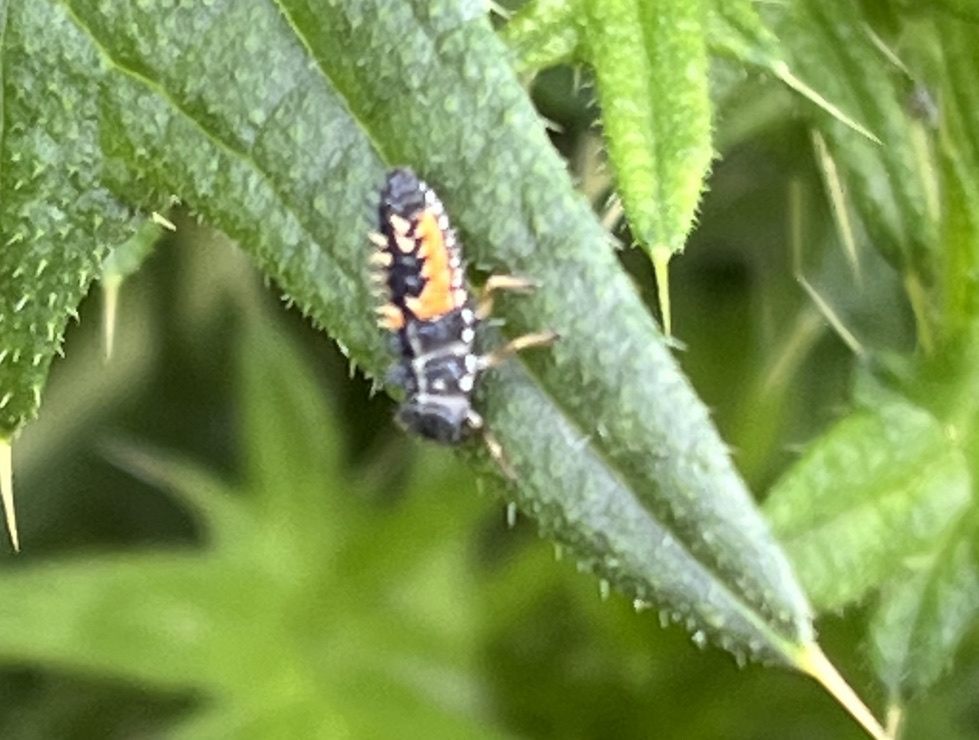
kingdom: Animalia
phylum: Arthropoda
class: Insecta
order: Coleoptera
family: Coccinellidae
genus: Harmonia
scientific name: Harmonia axyridis
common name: Harlequin ladybird
